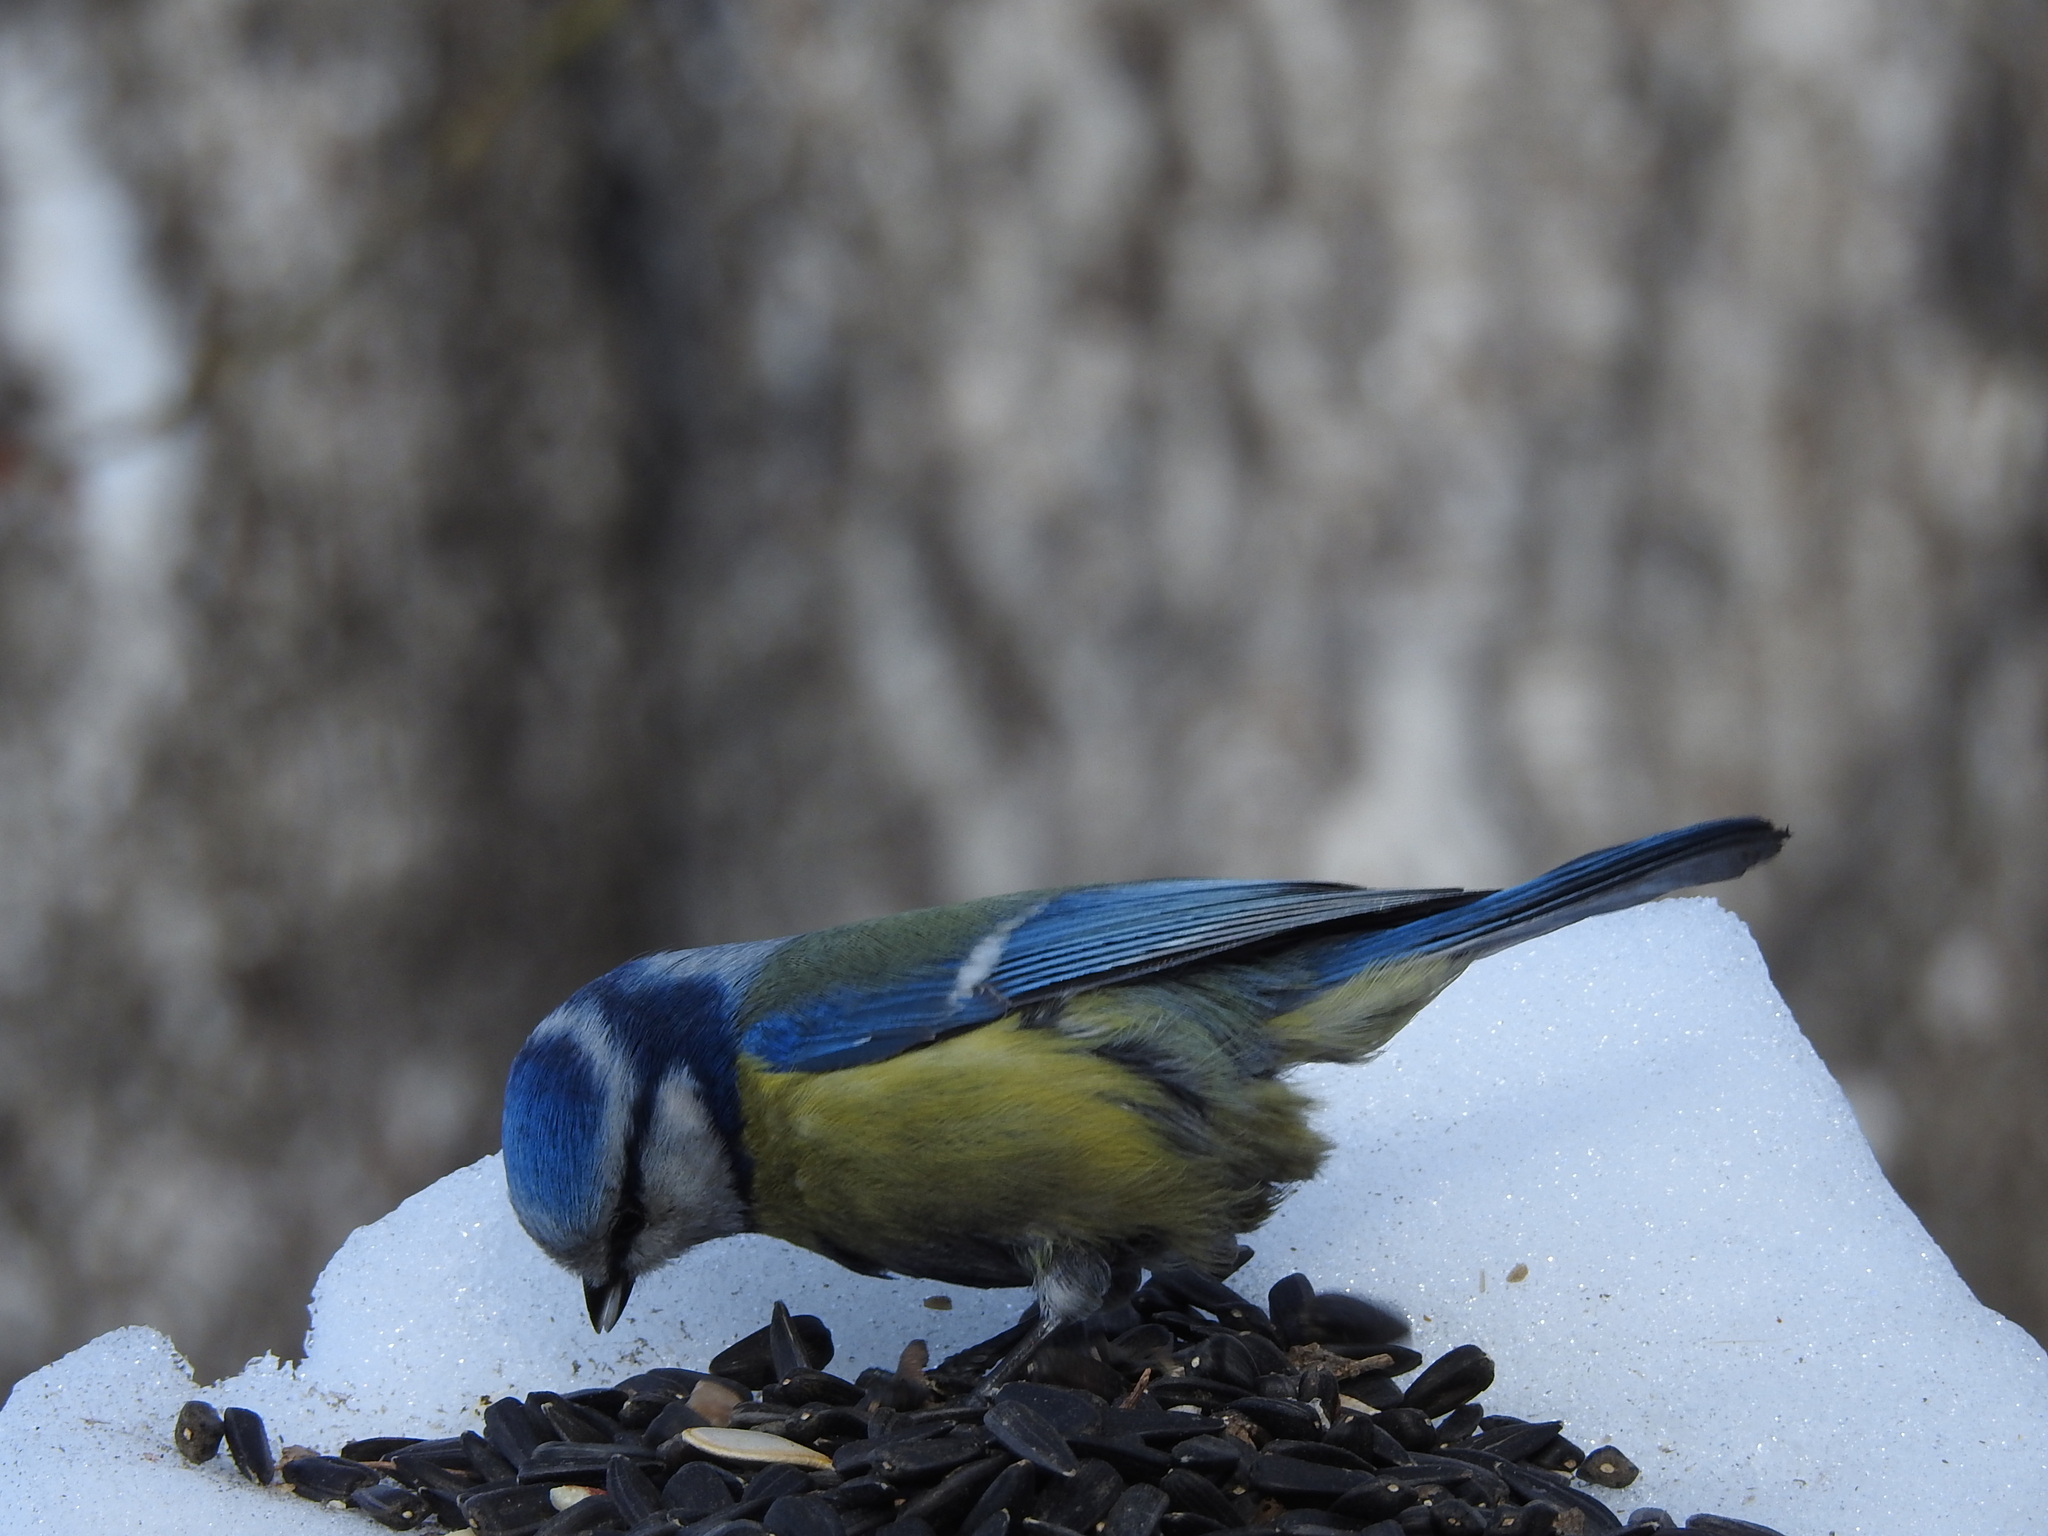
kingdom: Animalia
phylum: Chordata
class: Aves
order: Passeriformes
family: Paridae
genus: Cyanistes
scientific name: Cyanistes caeruleus
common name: Eurasian blue tit
